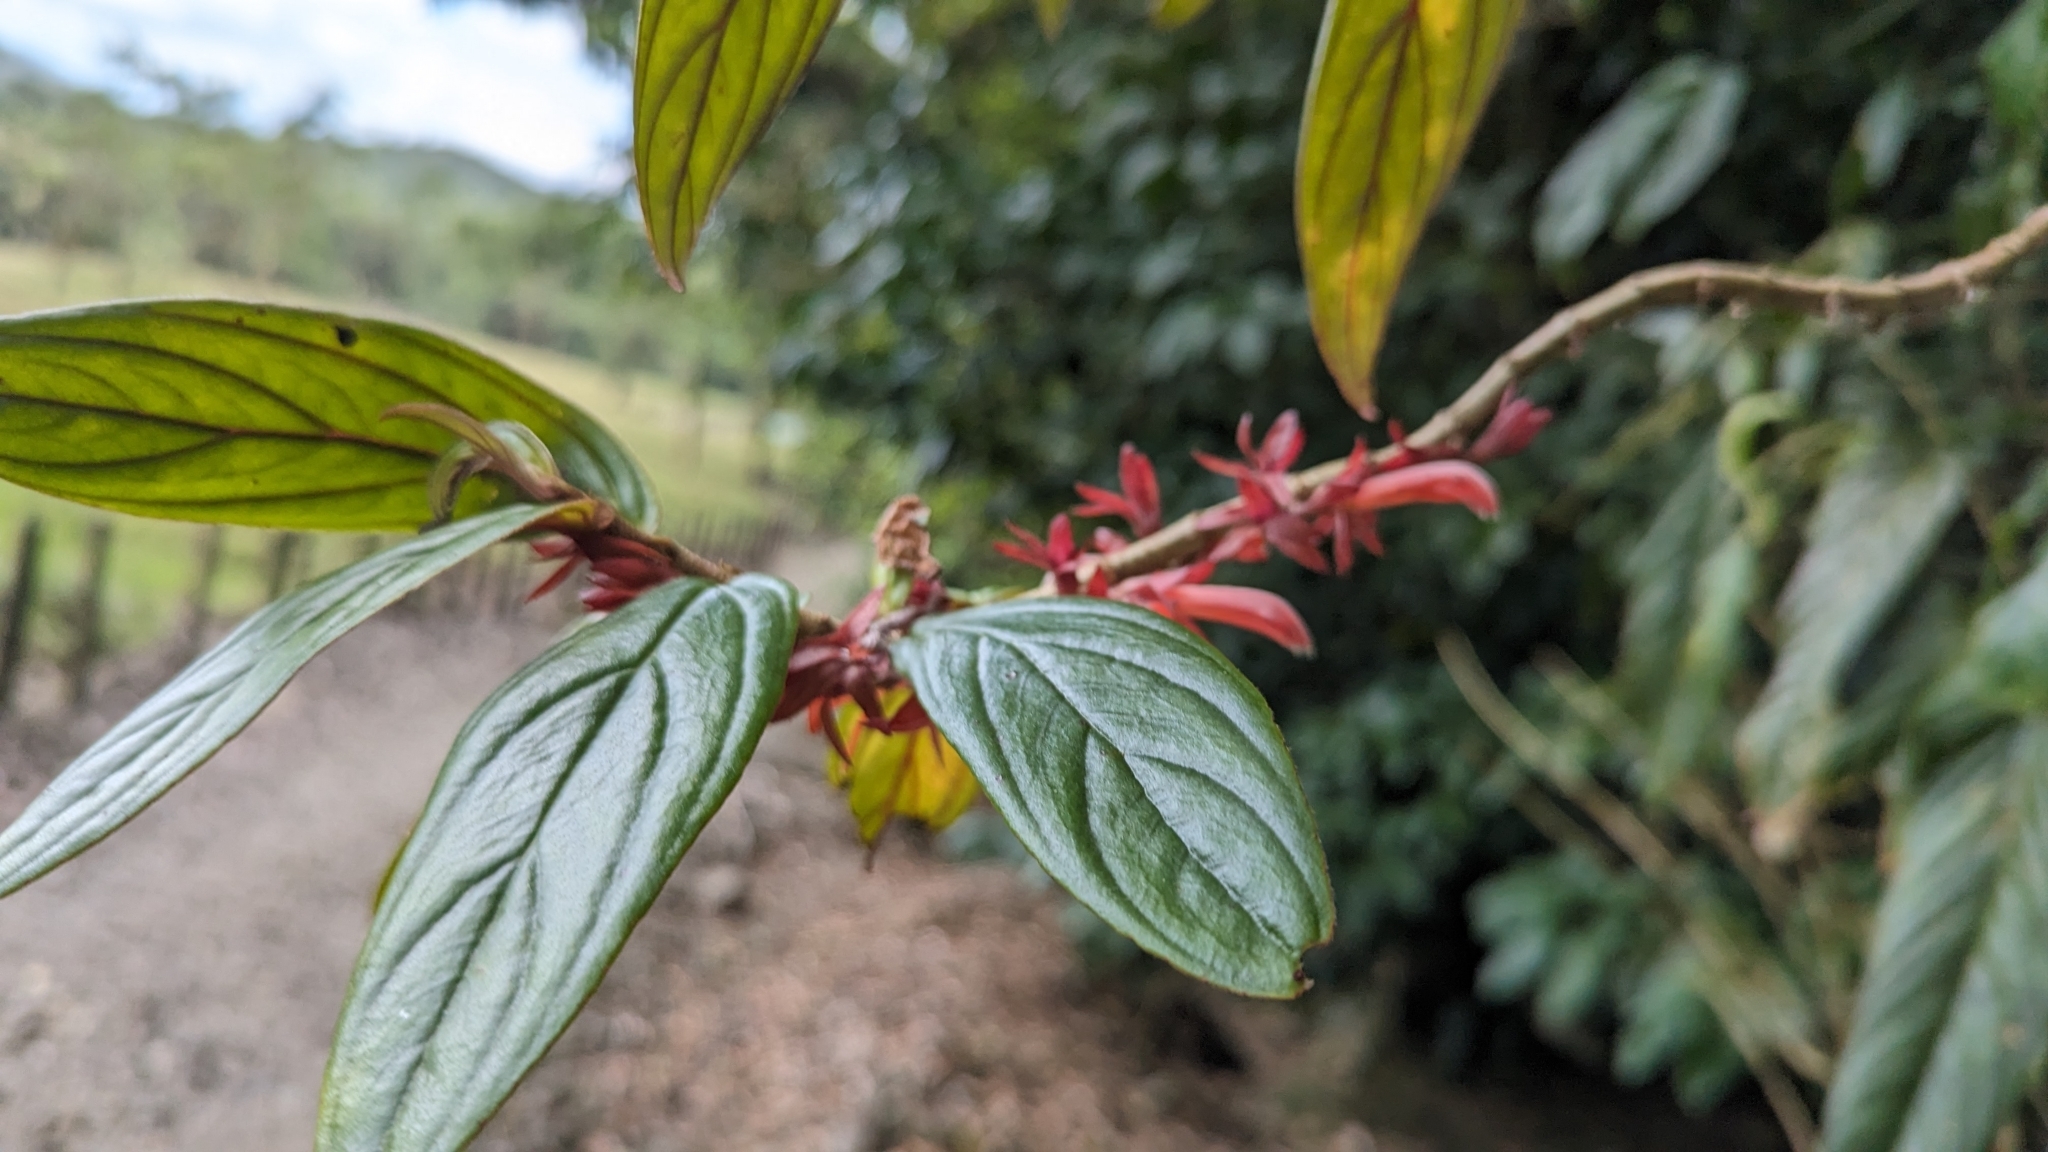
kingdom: Plantae
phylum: Tracheophyta
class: Magnoliopsida
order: Lamiales
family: Gesneriaceae
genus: Columnea
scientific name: Columnea querceti
